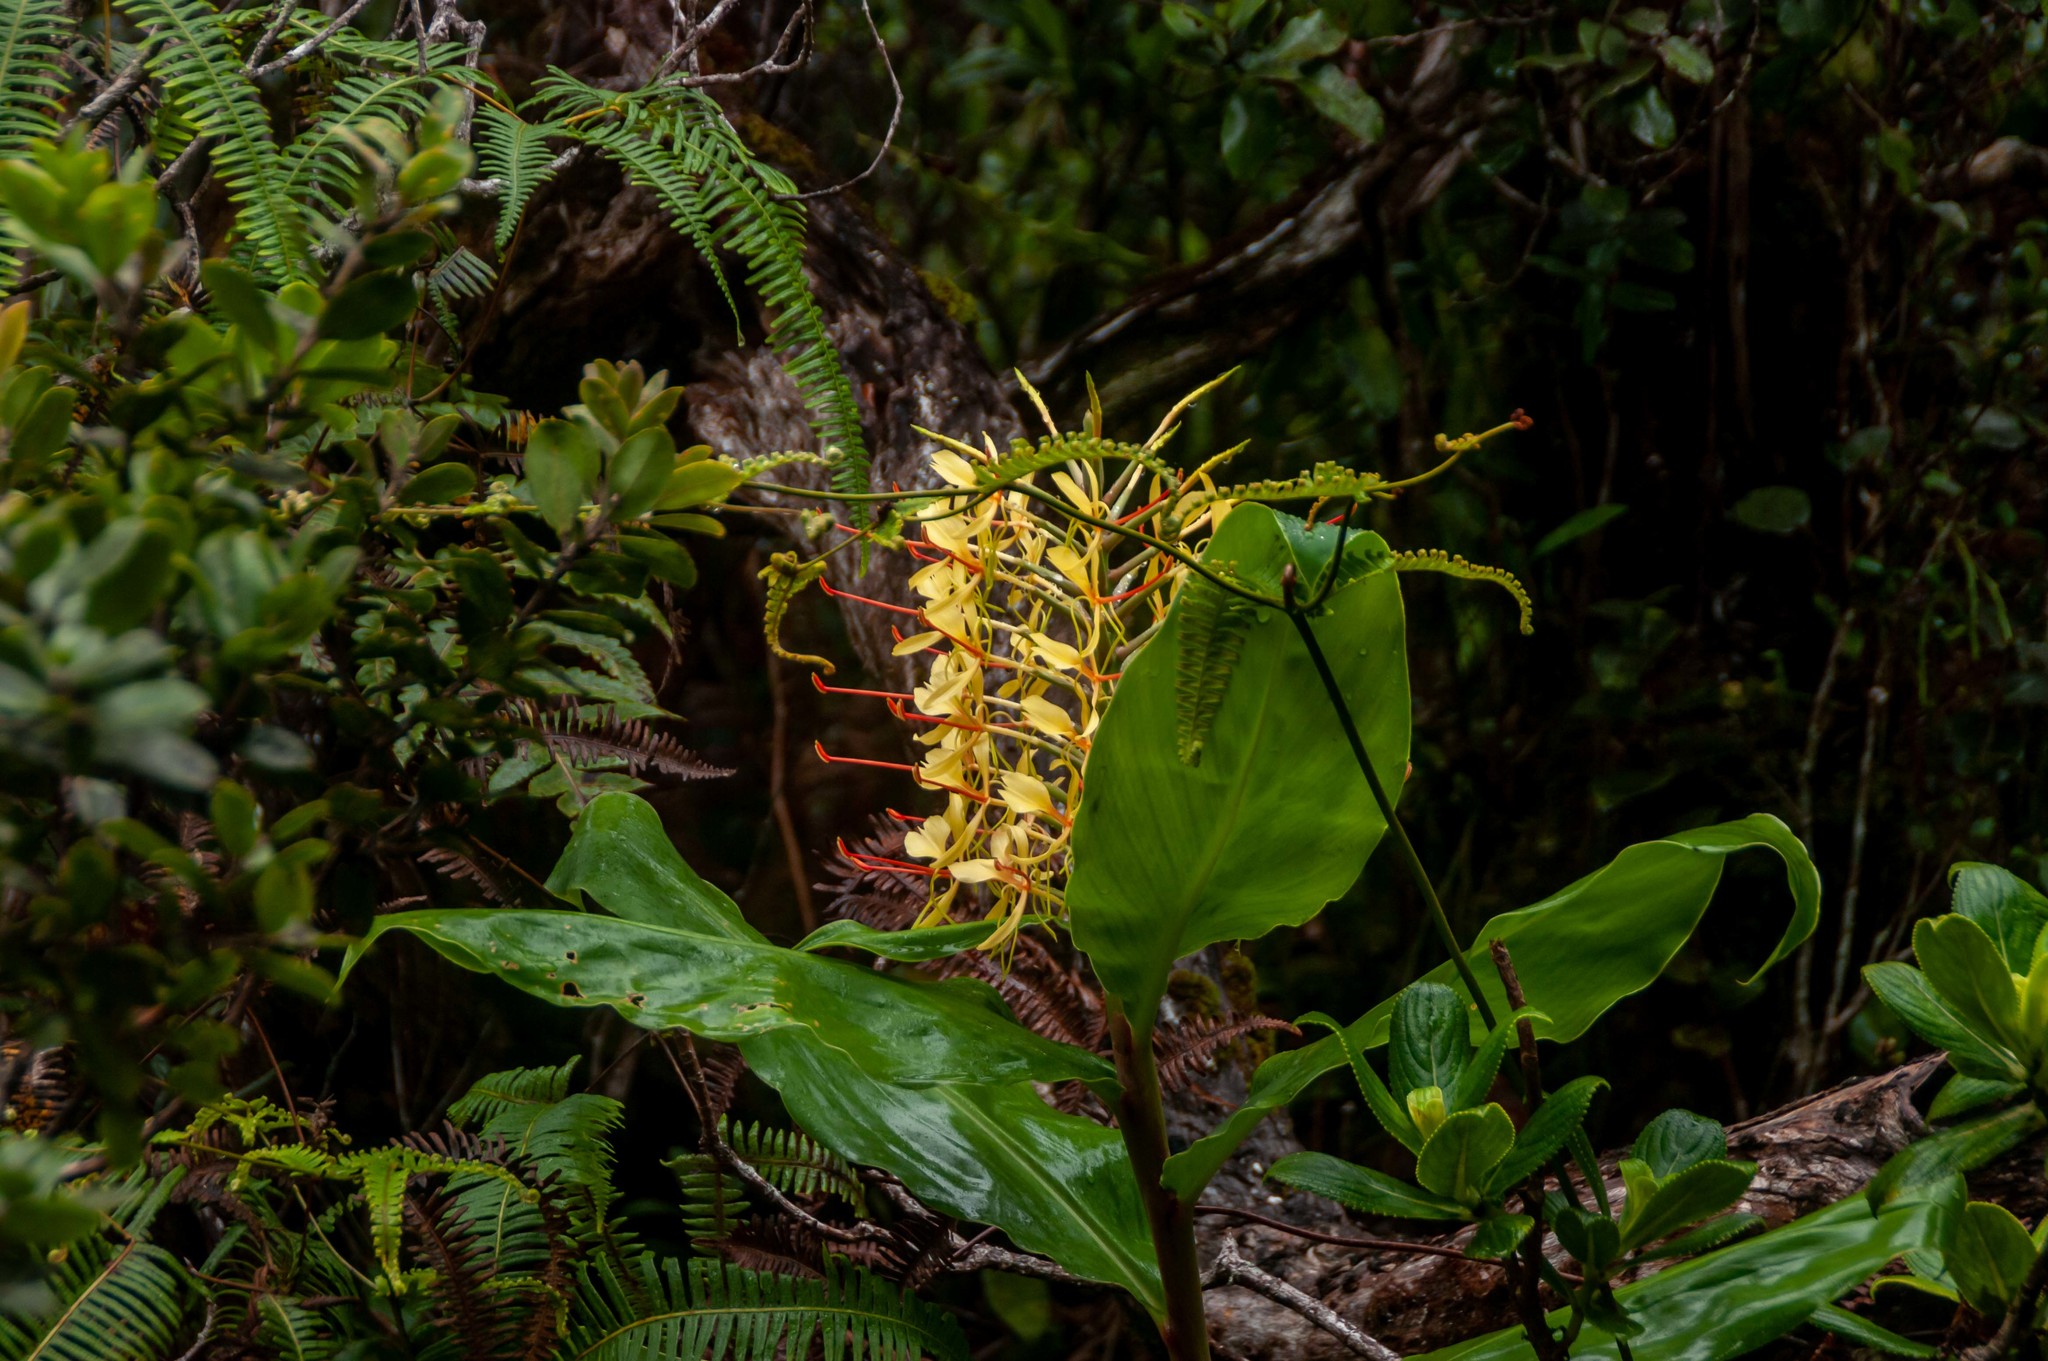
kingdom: Plantae
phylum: Tracheophyta
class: Liliopsida
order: Zingiberales
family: Zingiberaceae
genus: Hedychium
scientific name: Hedychium gardnerianum
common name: Himalayan ginger
